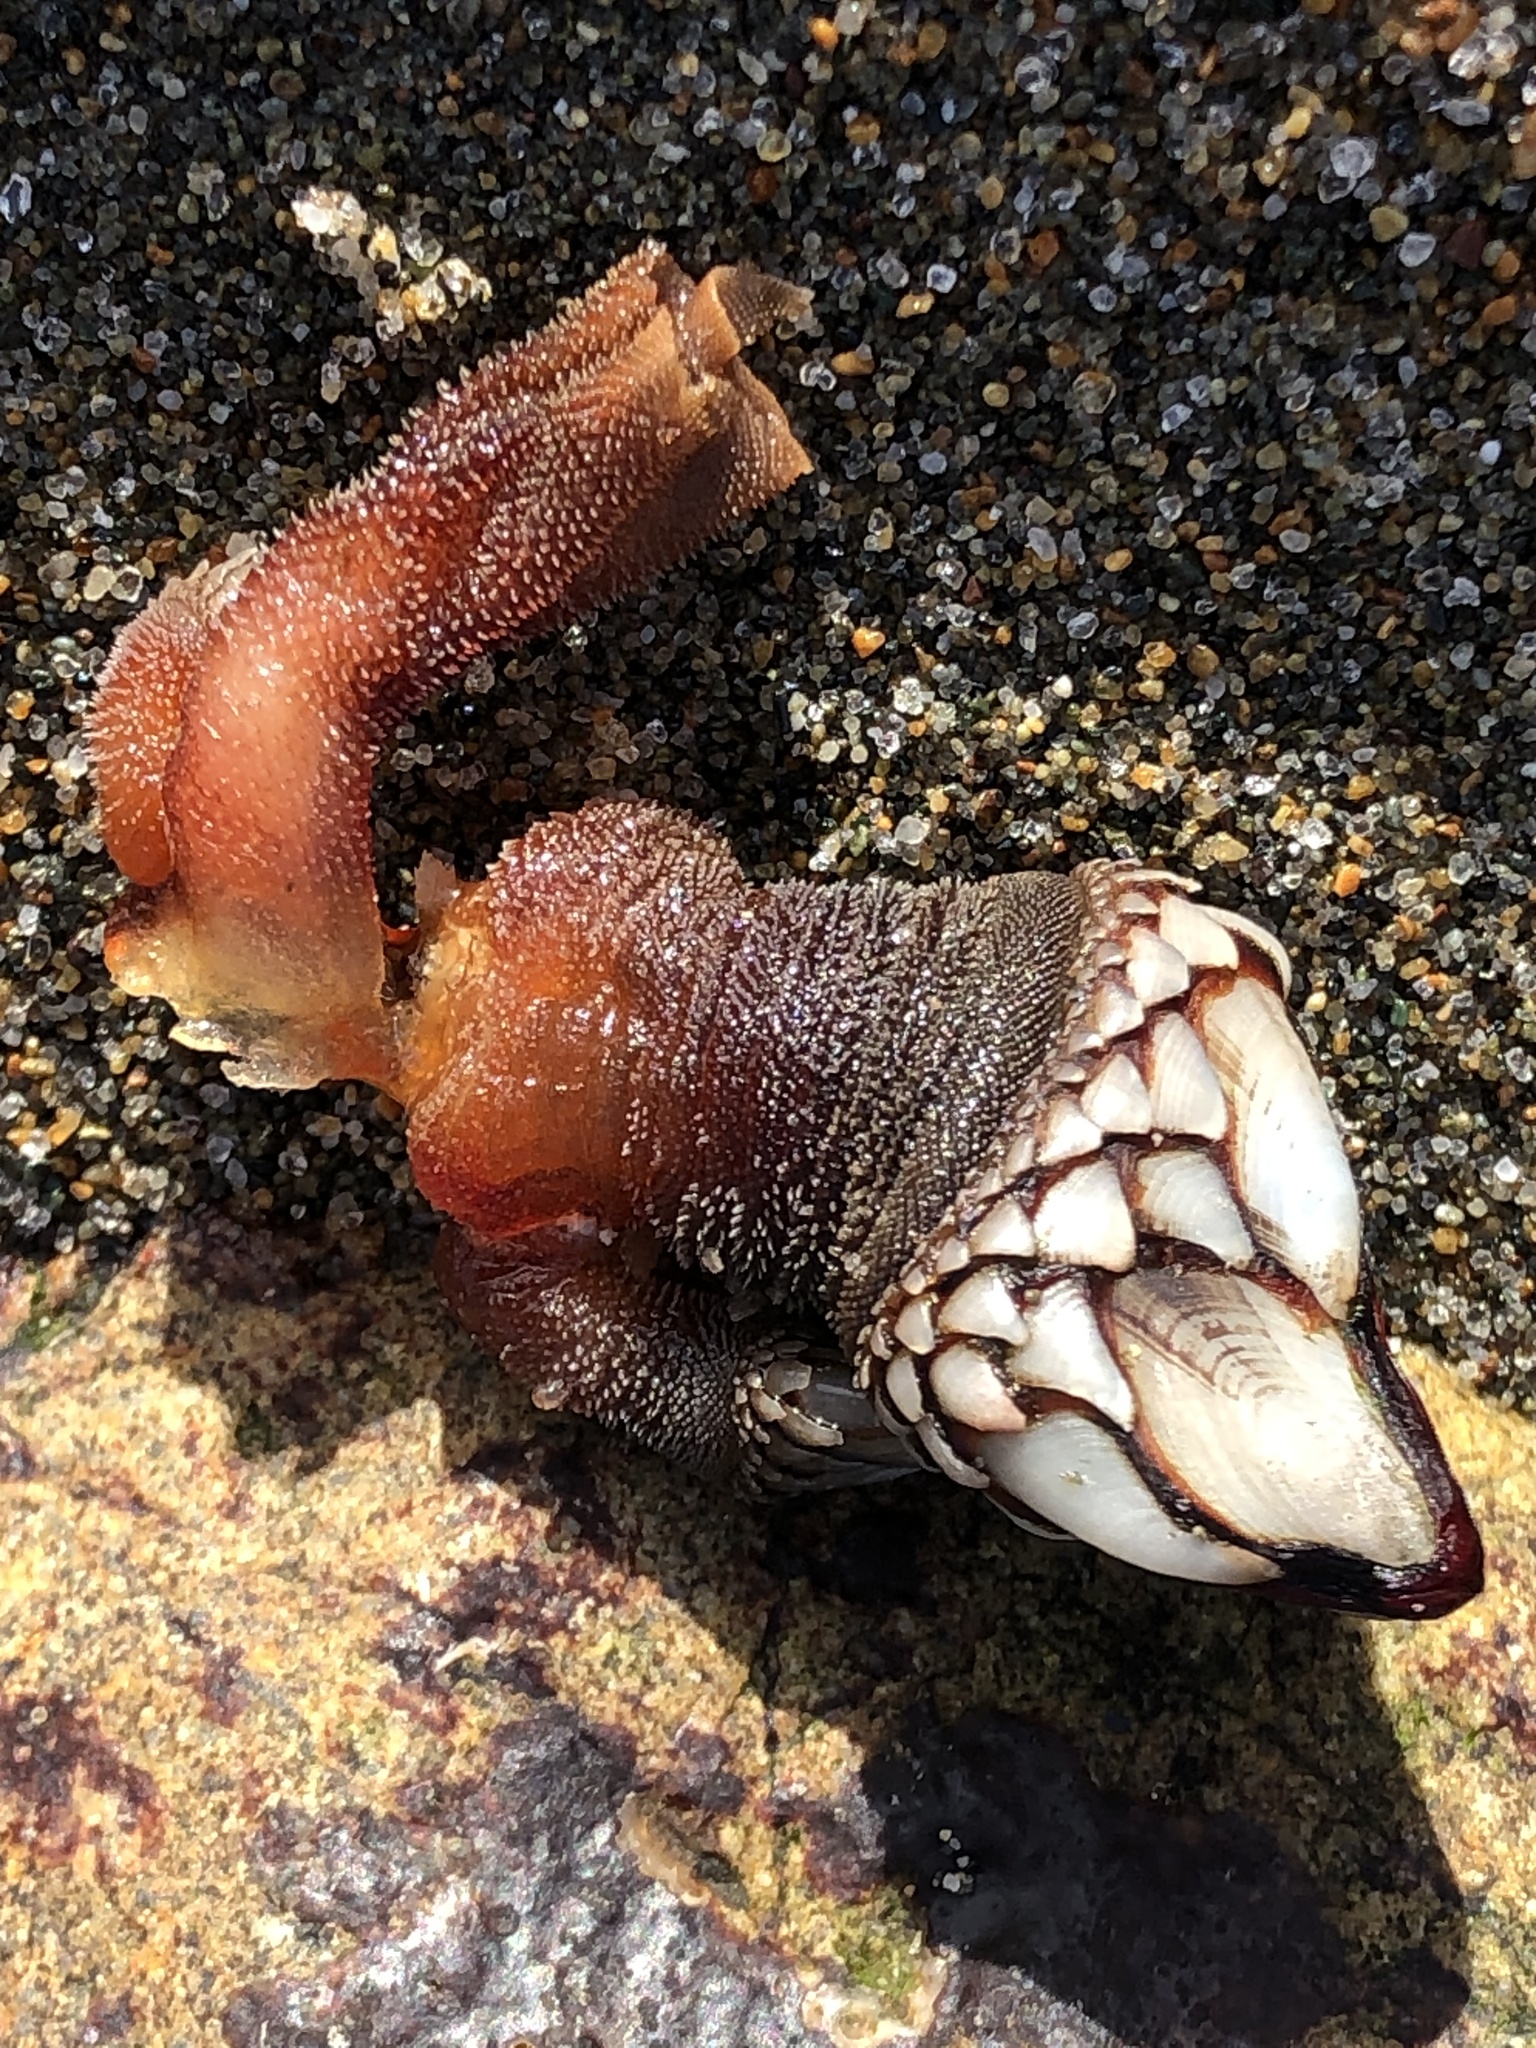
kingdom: Animalia
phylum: Arthropoda
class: Maxillopoda
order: Pedunculata
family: Pollicipedidae
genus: Pollicipes
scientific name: Pollicipes polymerus
